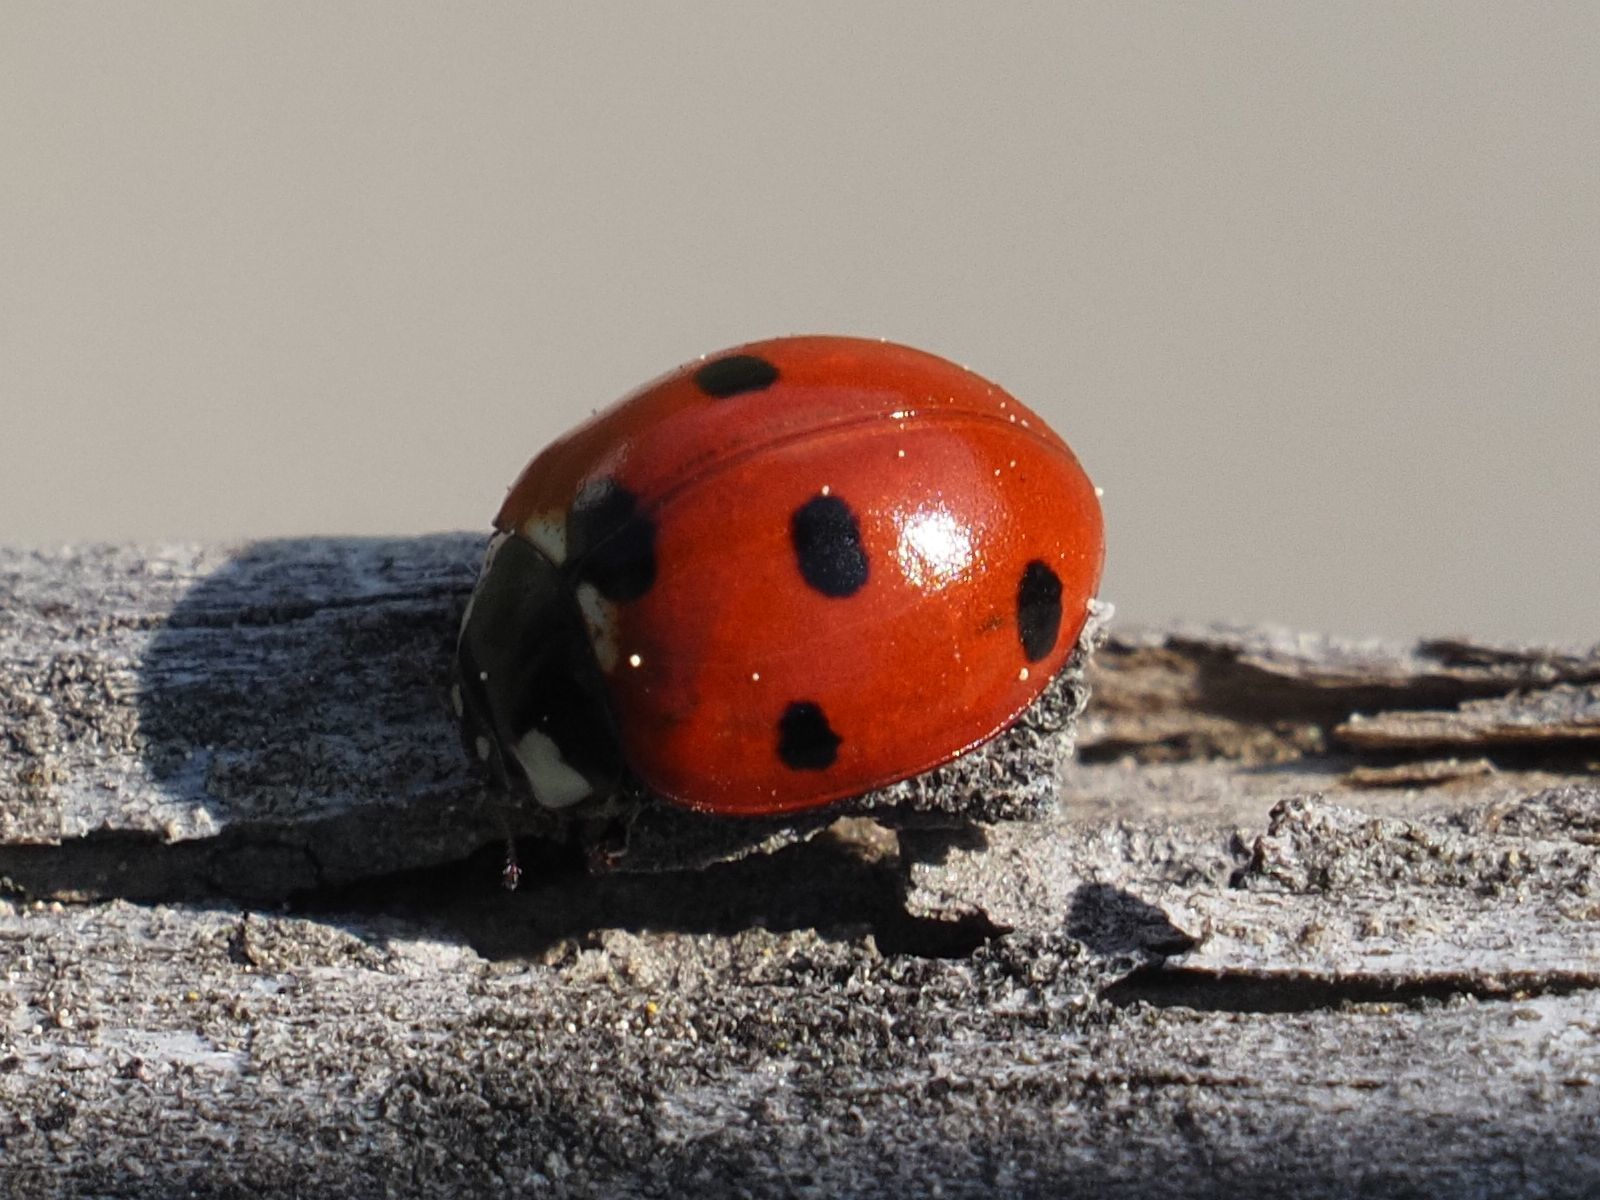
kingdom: Animalia
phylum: Arthropoda
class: Insecta
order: Coleoptera
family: Coccinellidae
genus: Coccinella
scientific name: Coccinella septempunctata
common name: Sevenspotted lady beetle
